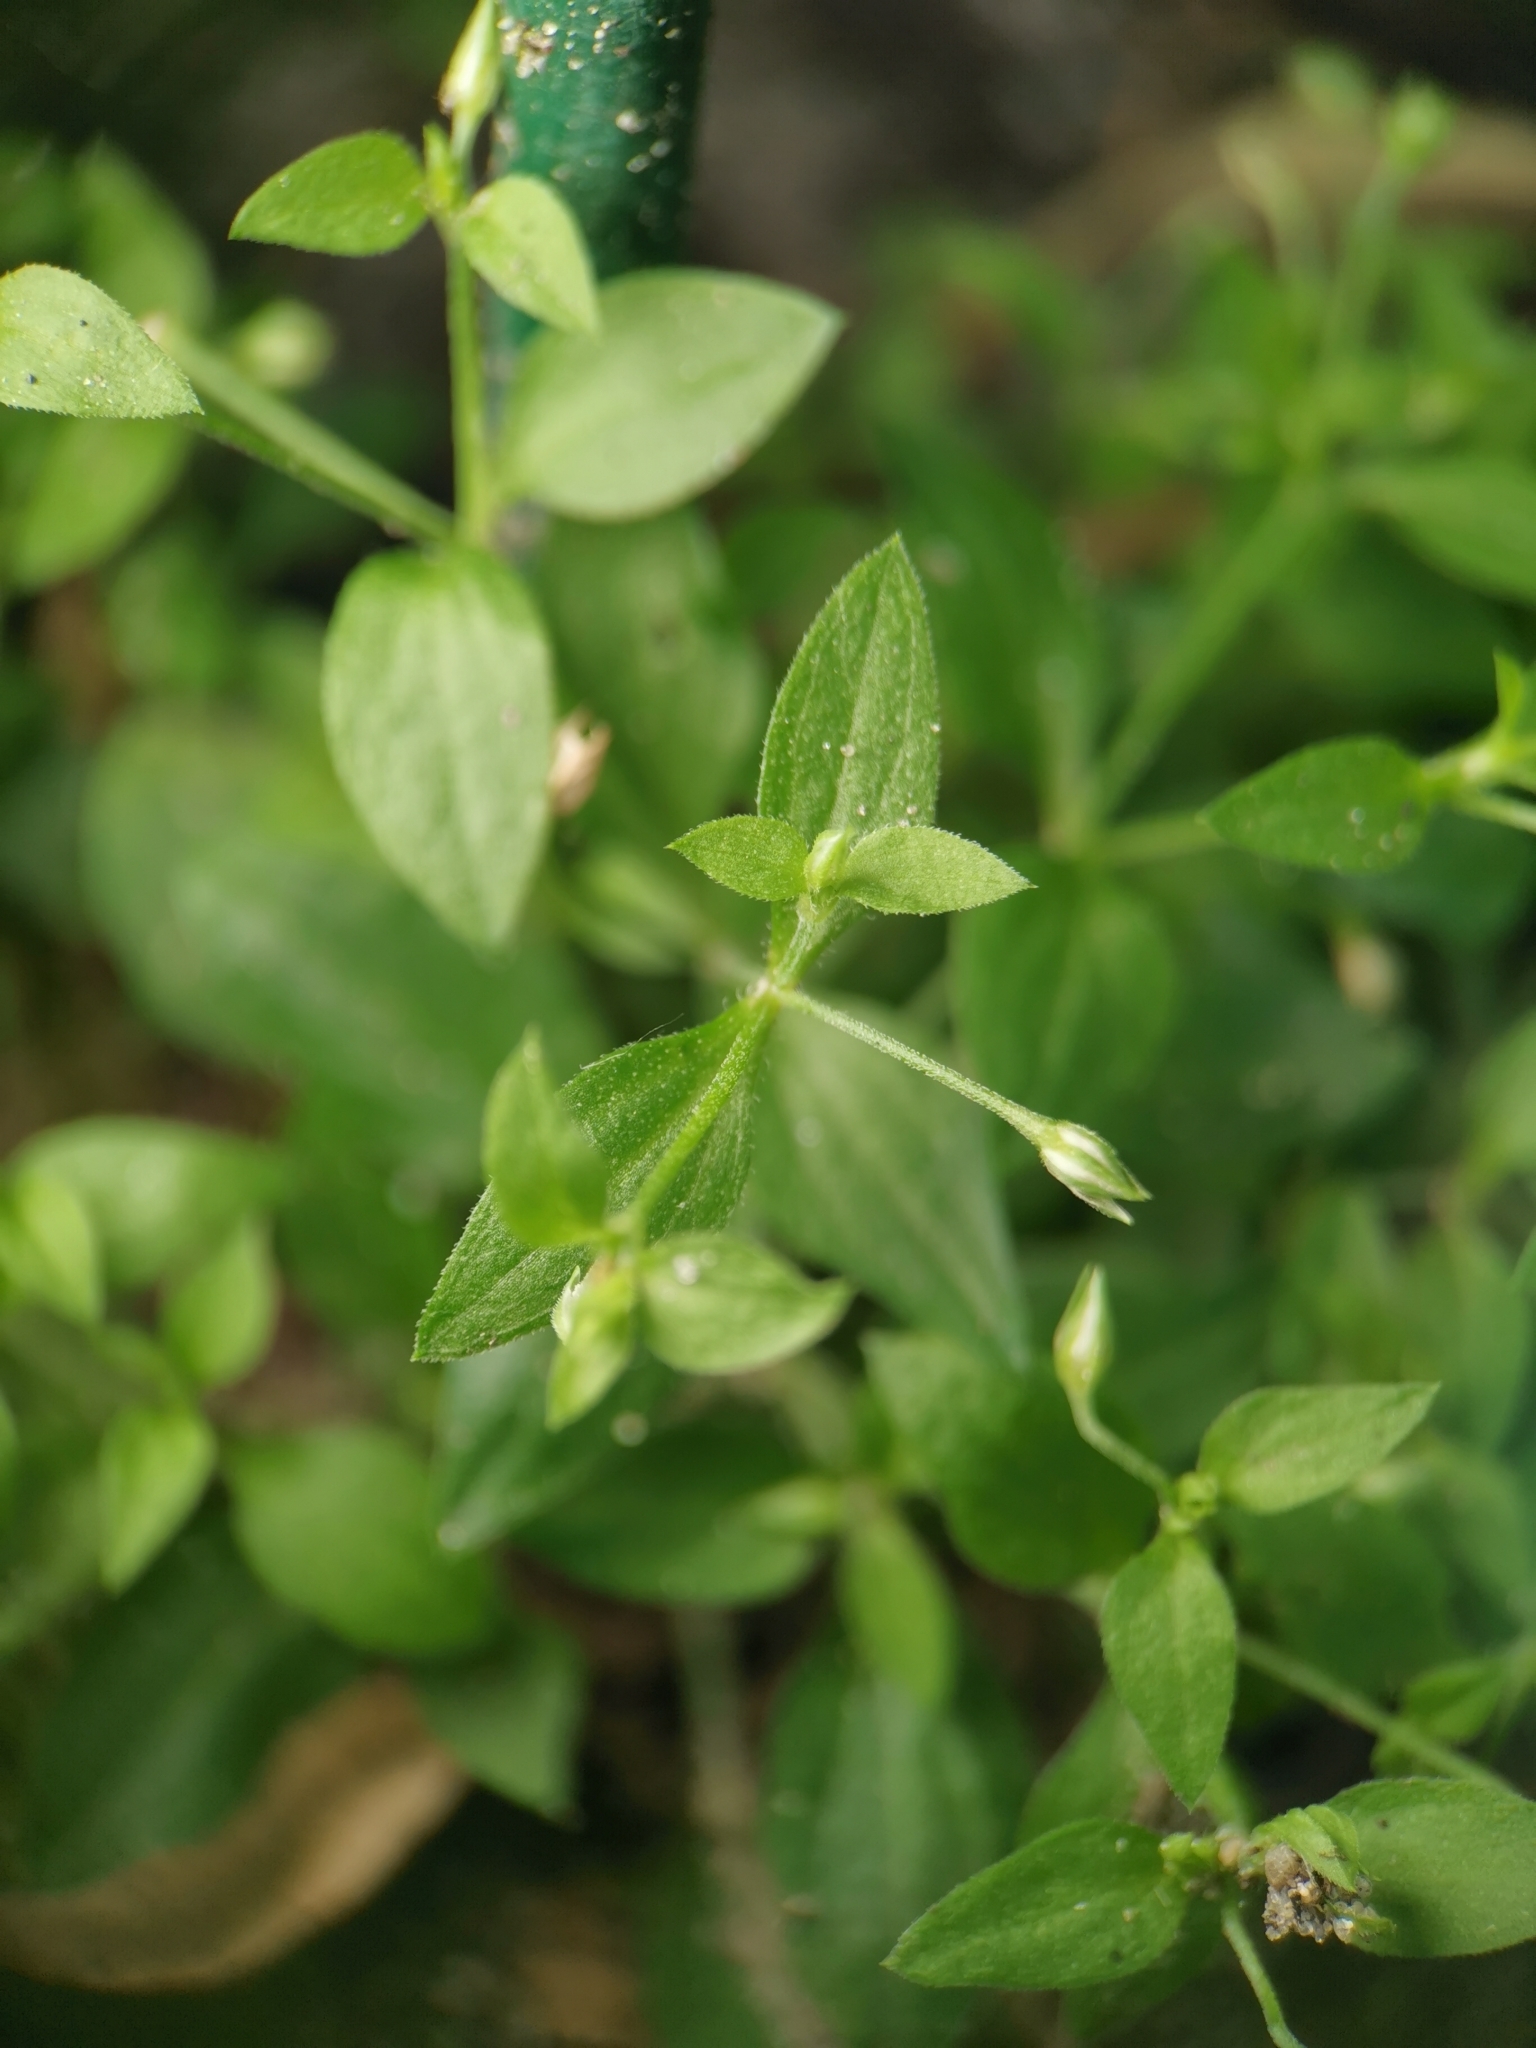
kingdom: Plantae
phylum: Tracheophyta
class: Magnoliopsida
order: Caryophyllales
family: Caryophyllaceae
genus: Moehringia
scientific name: Moehringia trinervia
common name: Three-nerved sandwort
